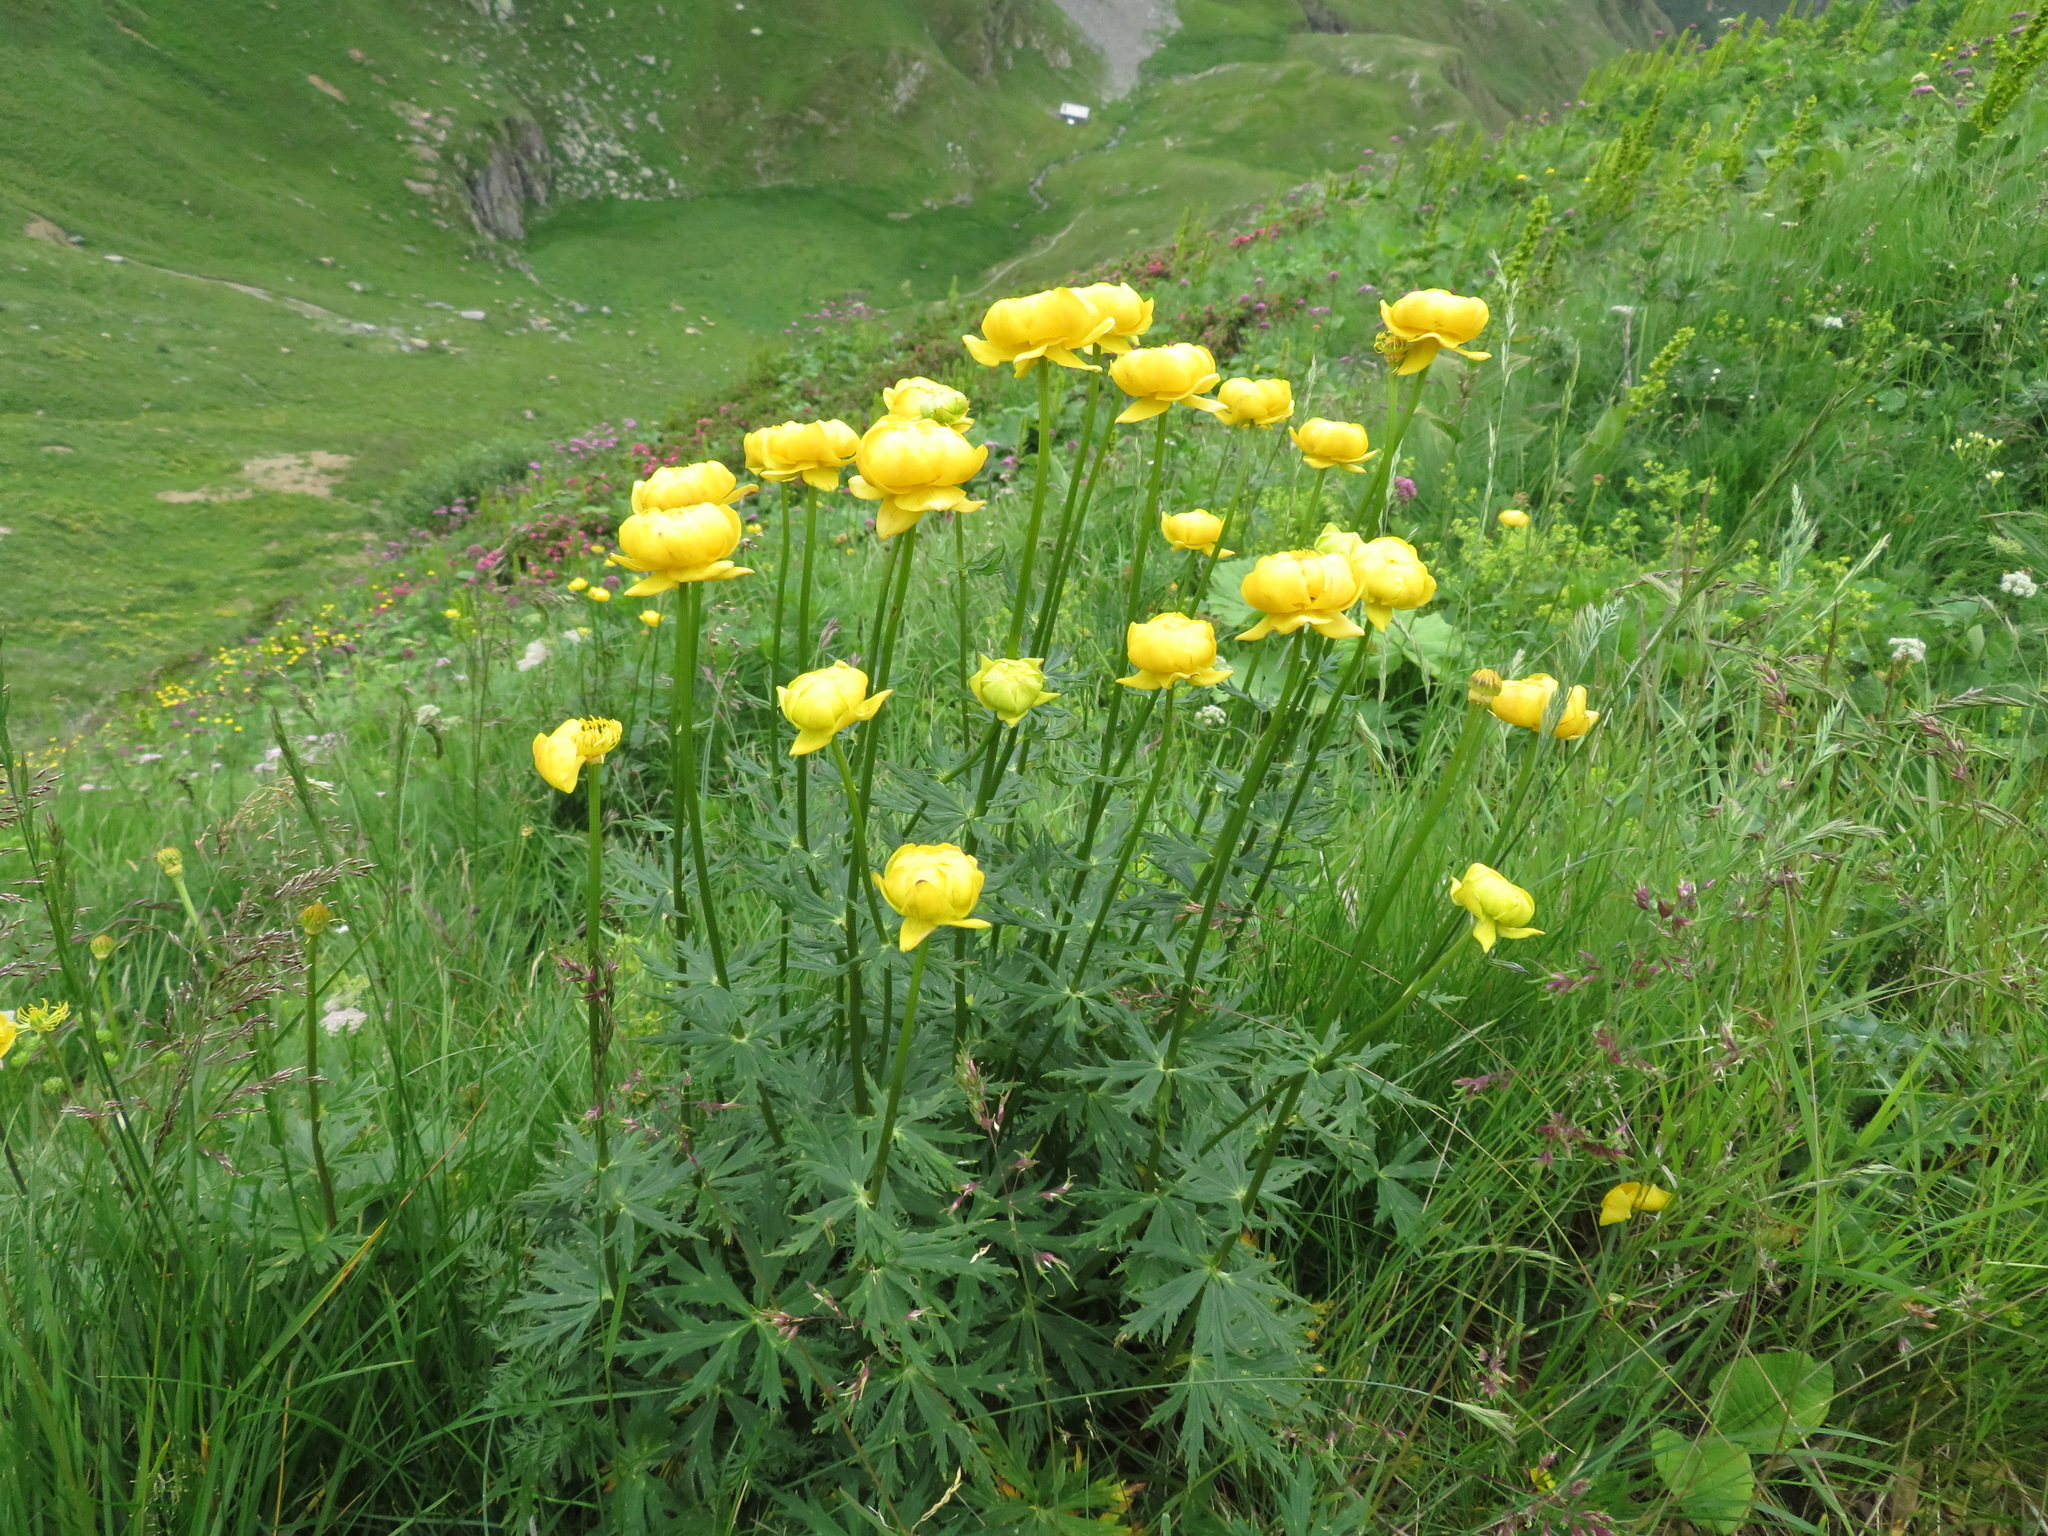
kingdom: Plantae
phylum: Tracheophyta
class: Magnoliopsida
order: Ranunculales
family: Ranunculaceae
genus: Trollius
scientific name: Trollius europaeus
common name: European globeflower
